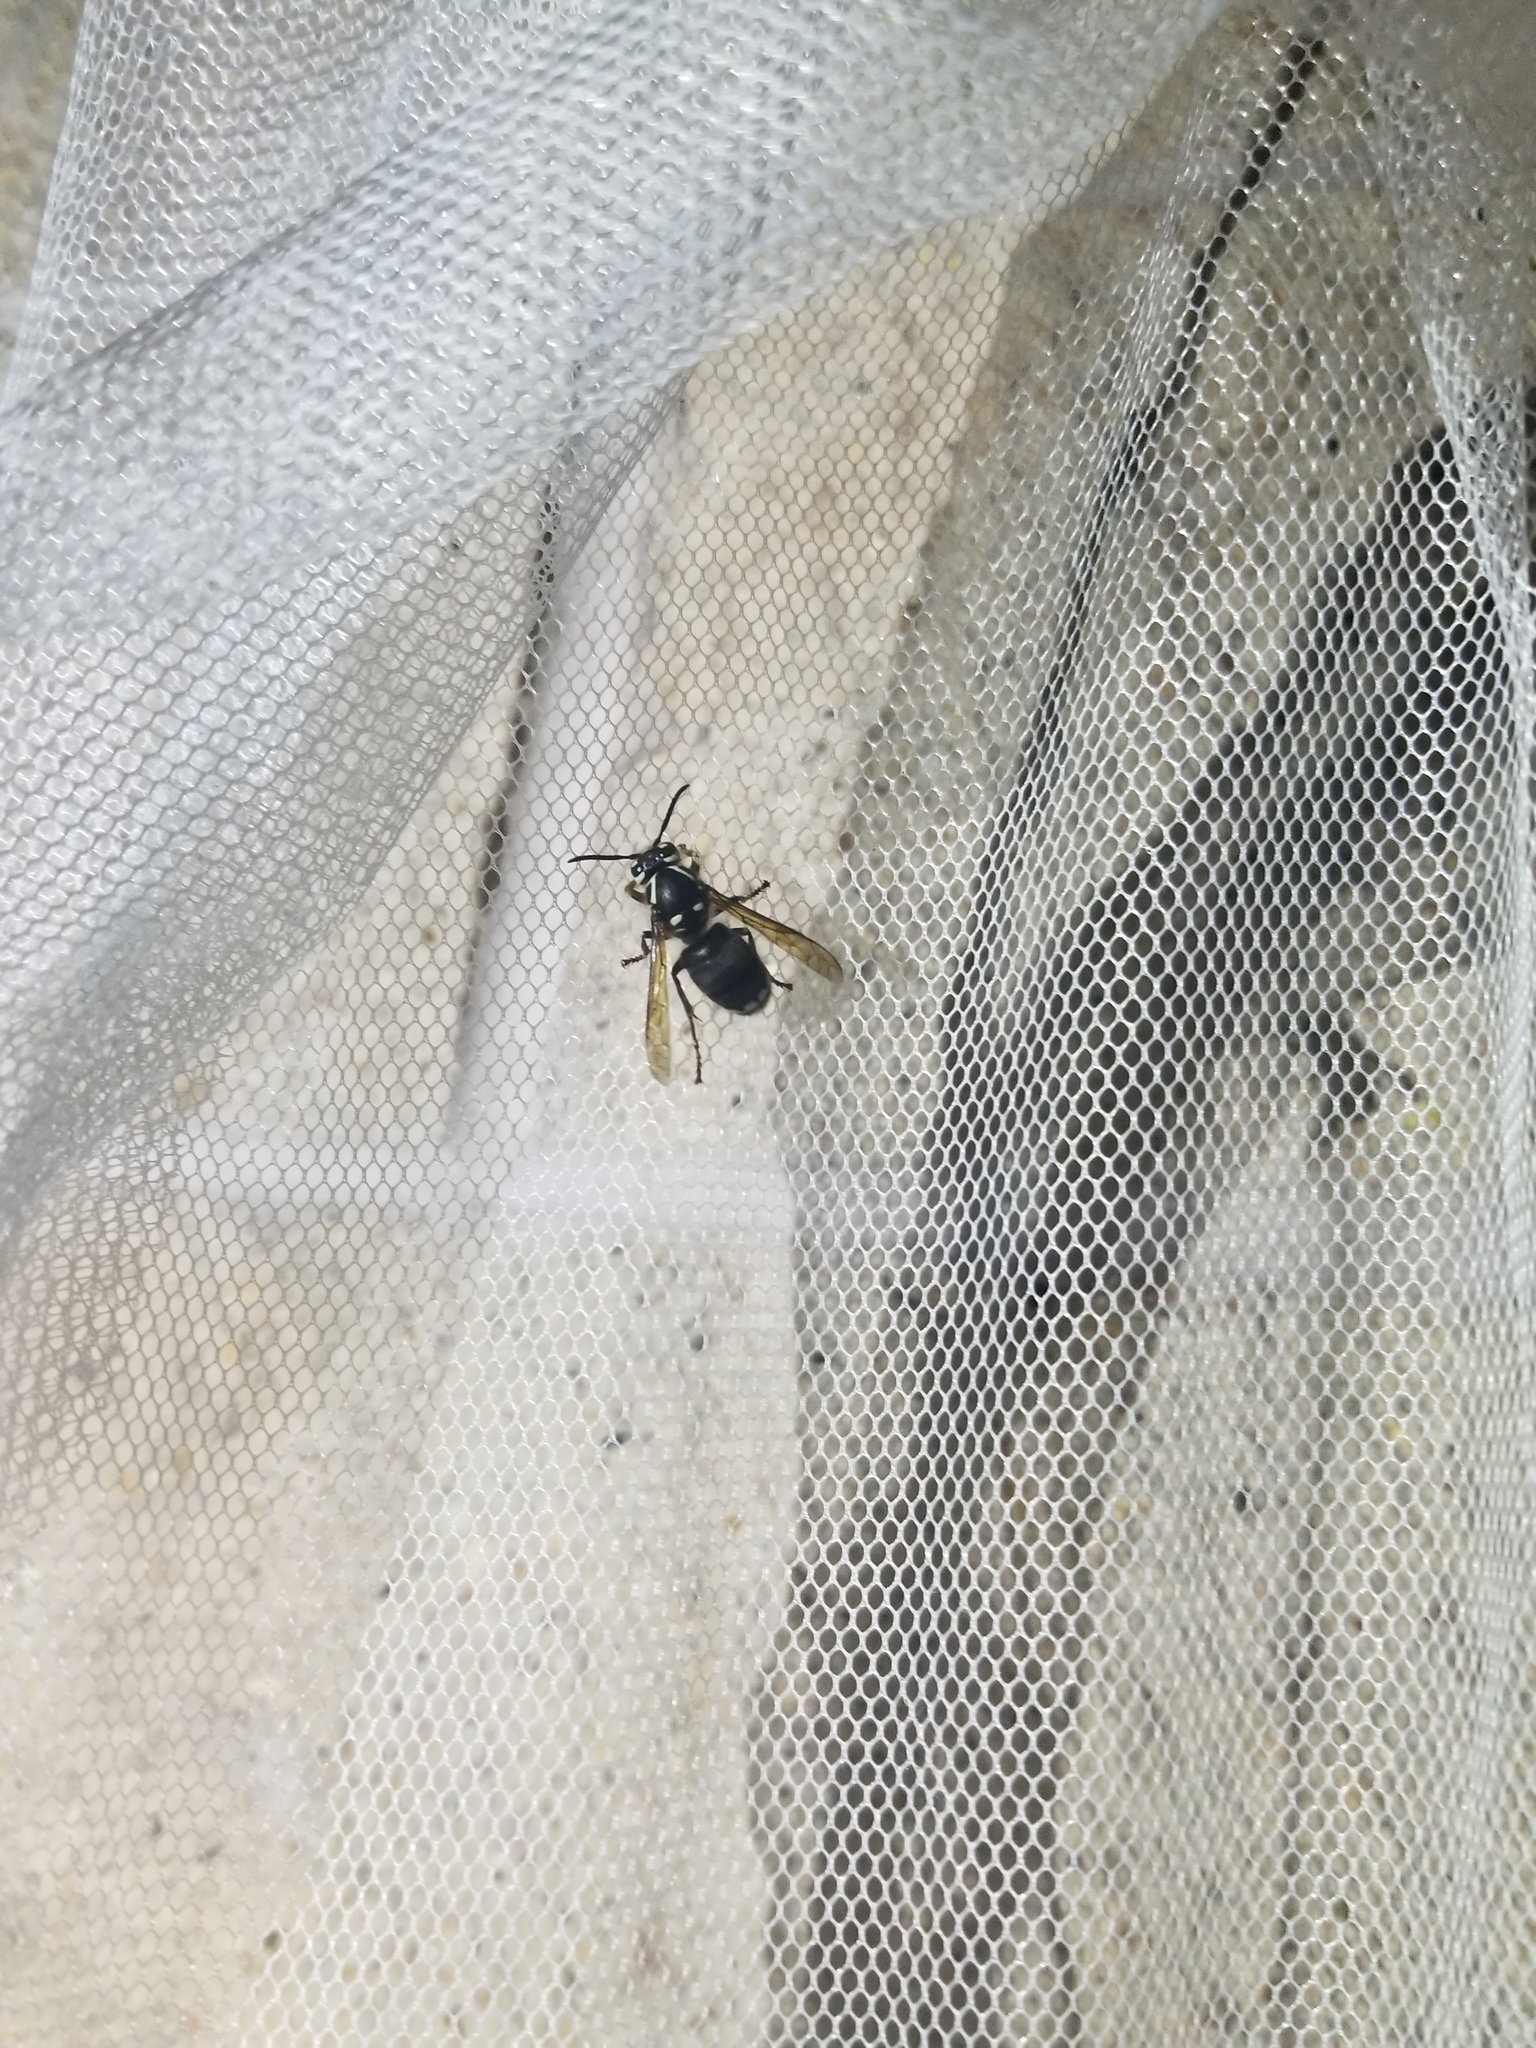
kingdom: Animalia
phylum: Arthropoda
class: Insecta
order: Hymenoptera
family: Vespidae
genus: Dolichovespula
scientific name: Dolichovespula maculata
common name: Bald-faced hornet
